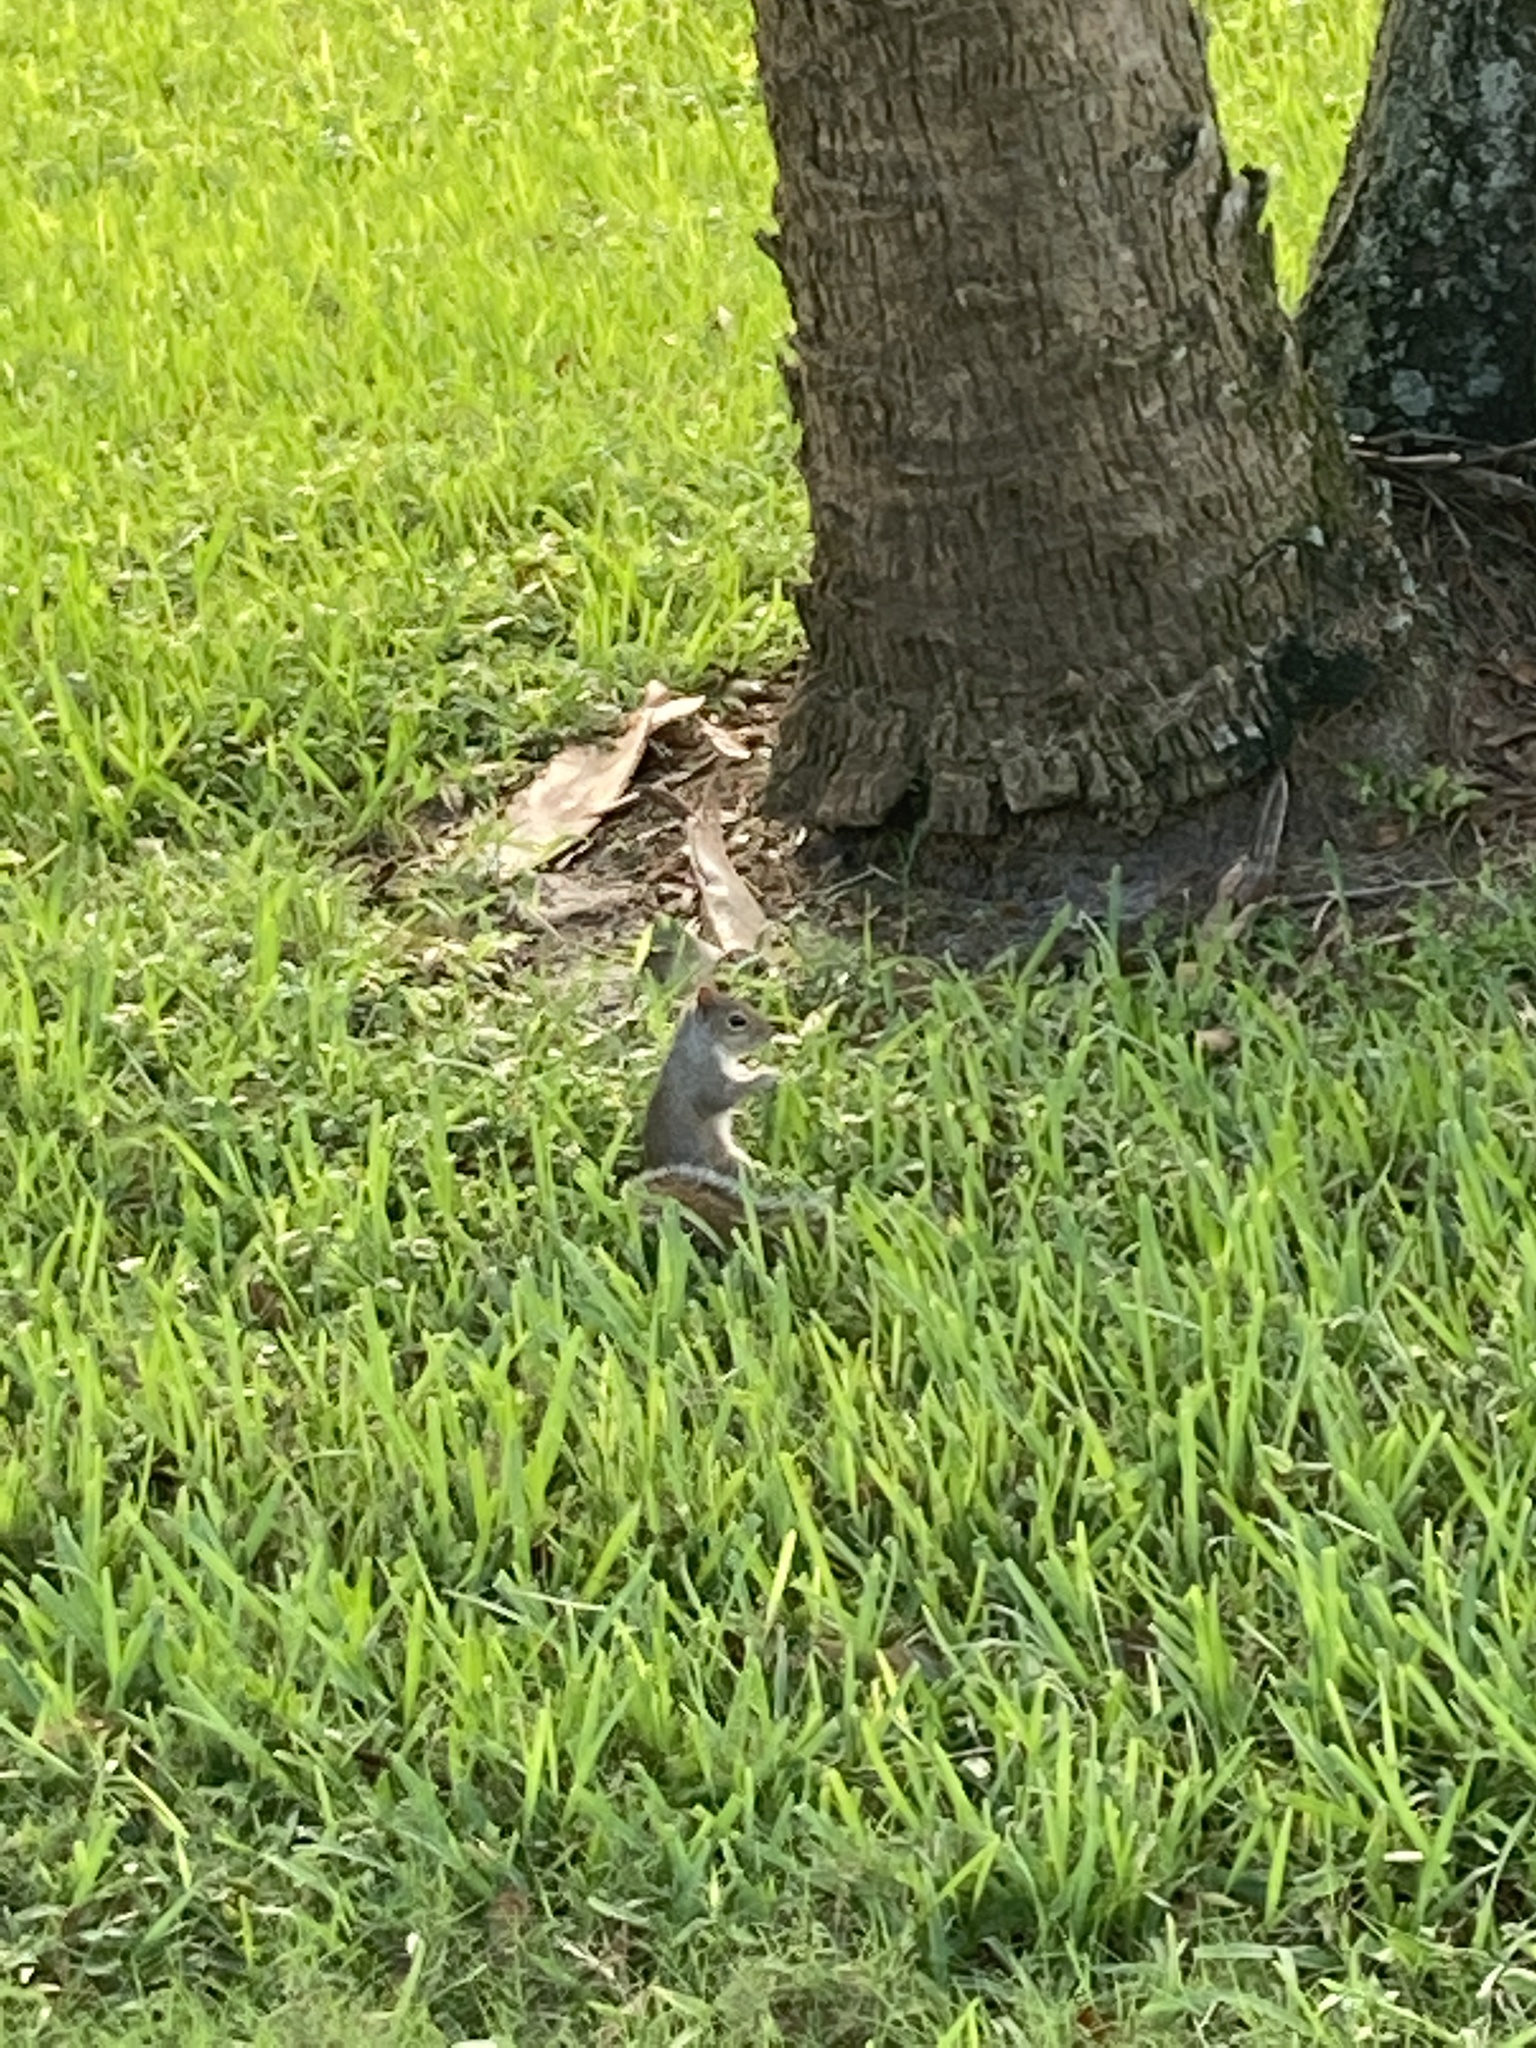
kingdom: Animalia
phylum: Chordata
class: Mammalia
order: Rodentia
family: Sciuridae
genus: Sciurus
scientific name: Sciurus carolinensis
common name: Eastern gray squirrel
